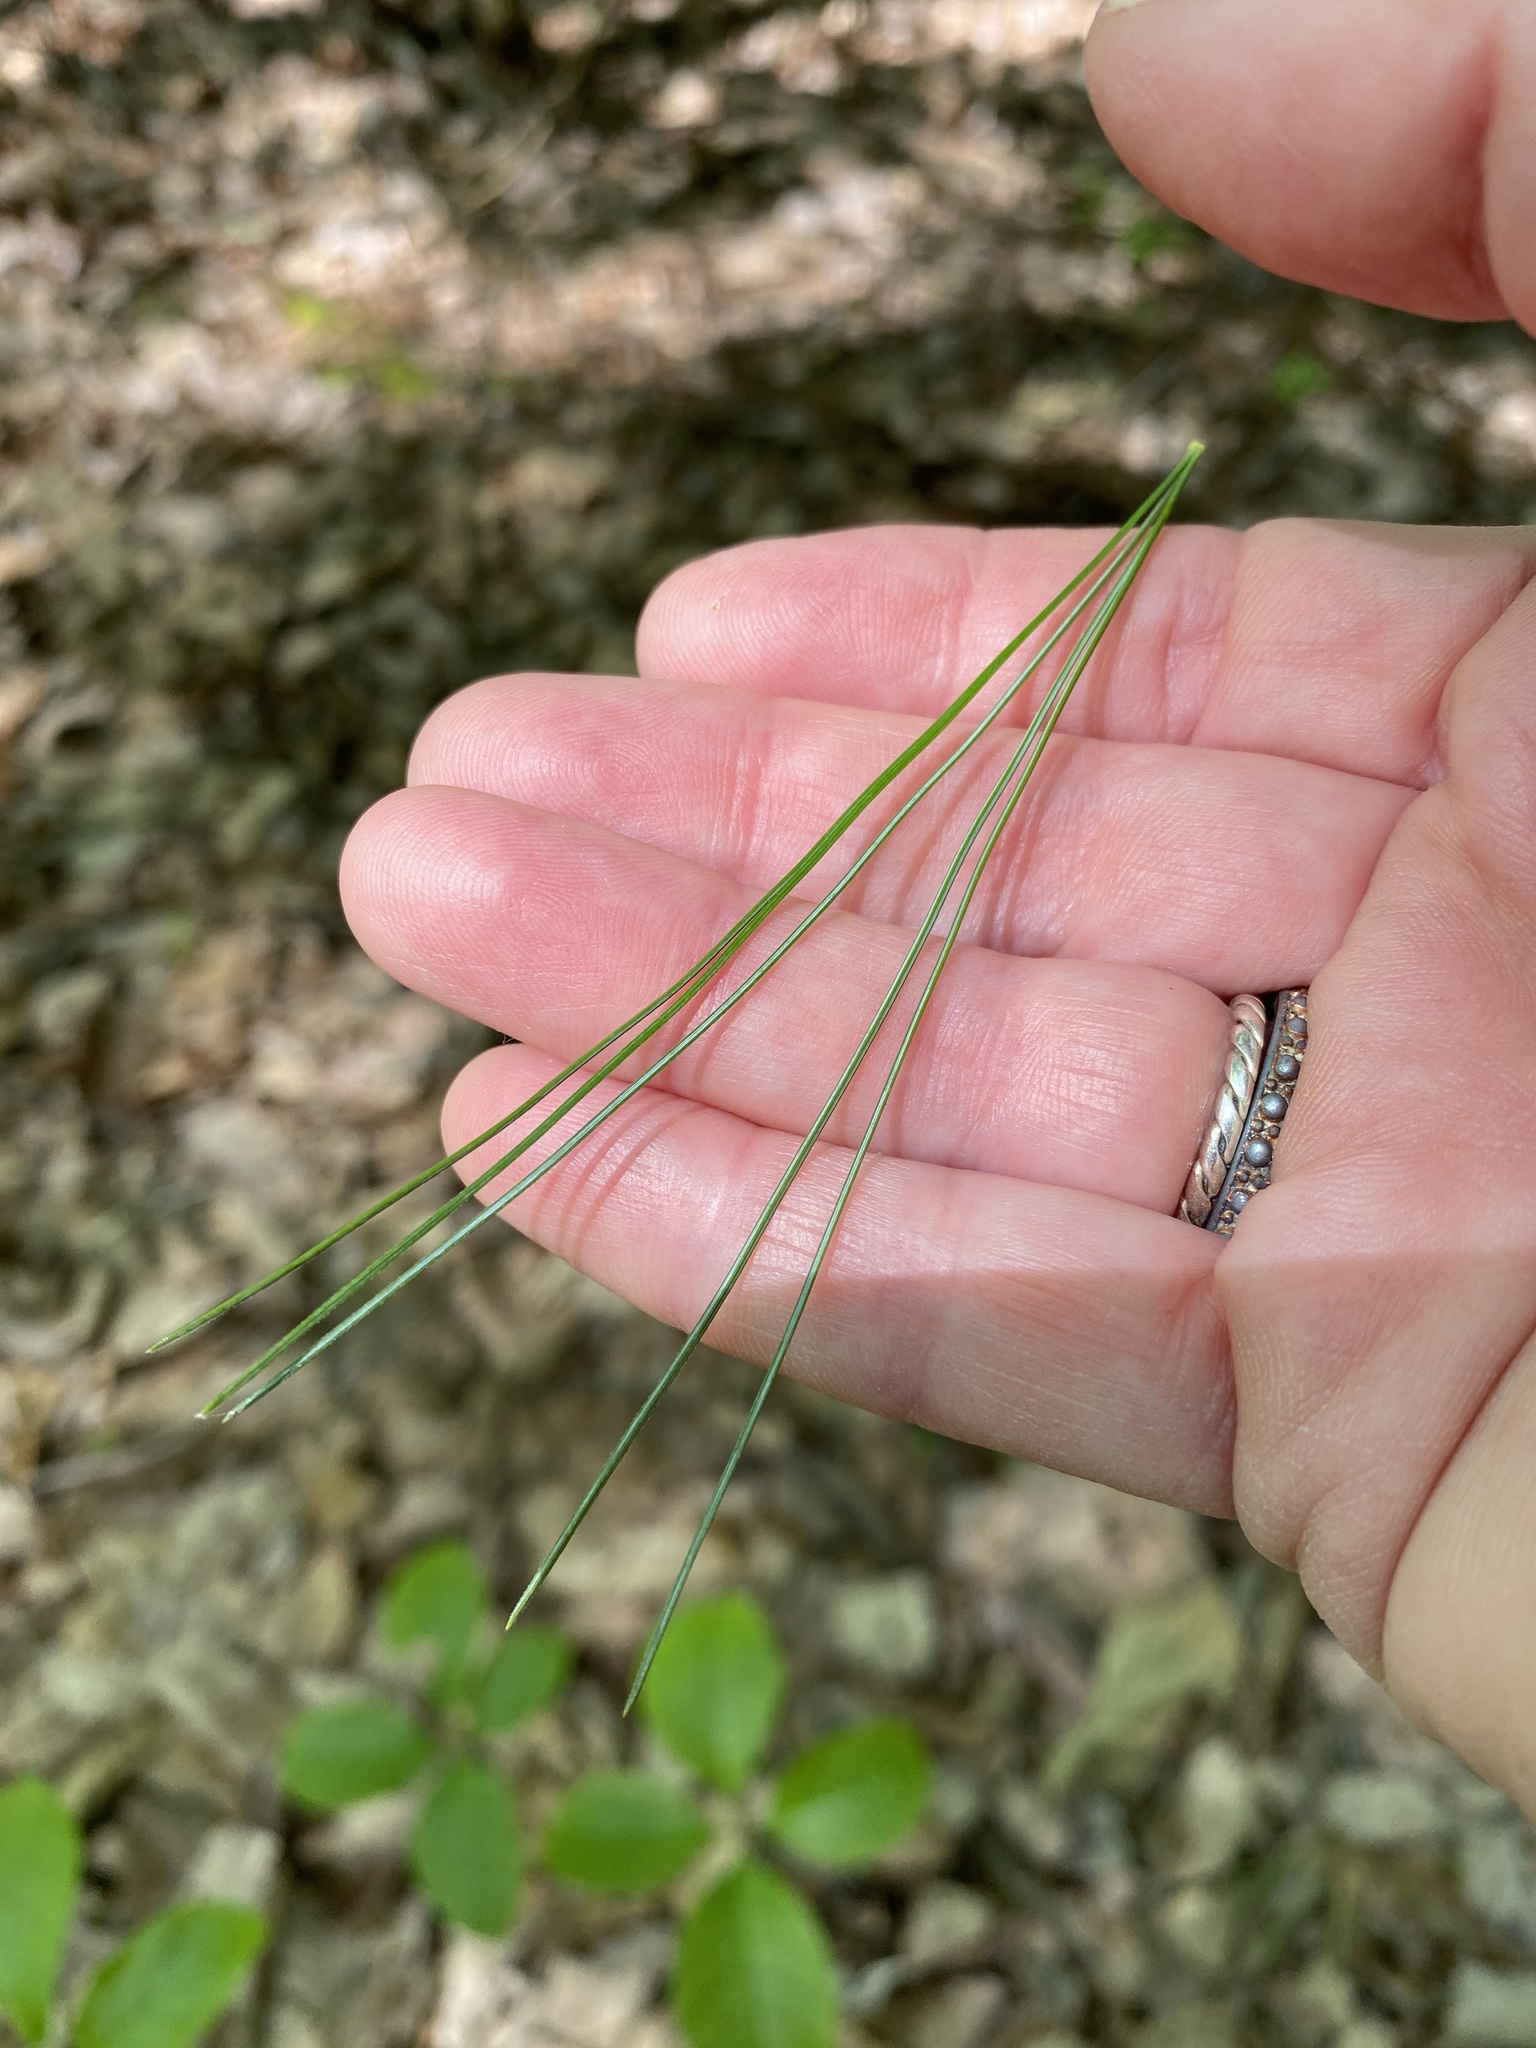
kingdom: Plantae
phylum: Tracheophyta
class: Pinopsida
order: Pinales
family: Pinaceae
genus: Pinus
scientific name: Pinus strobus
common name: Weymouth pine
